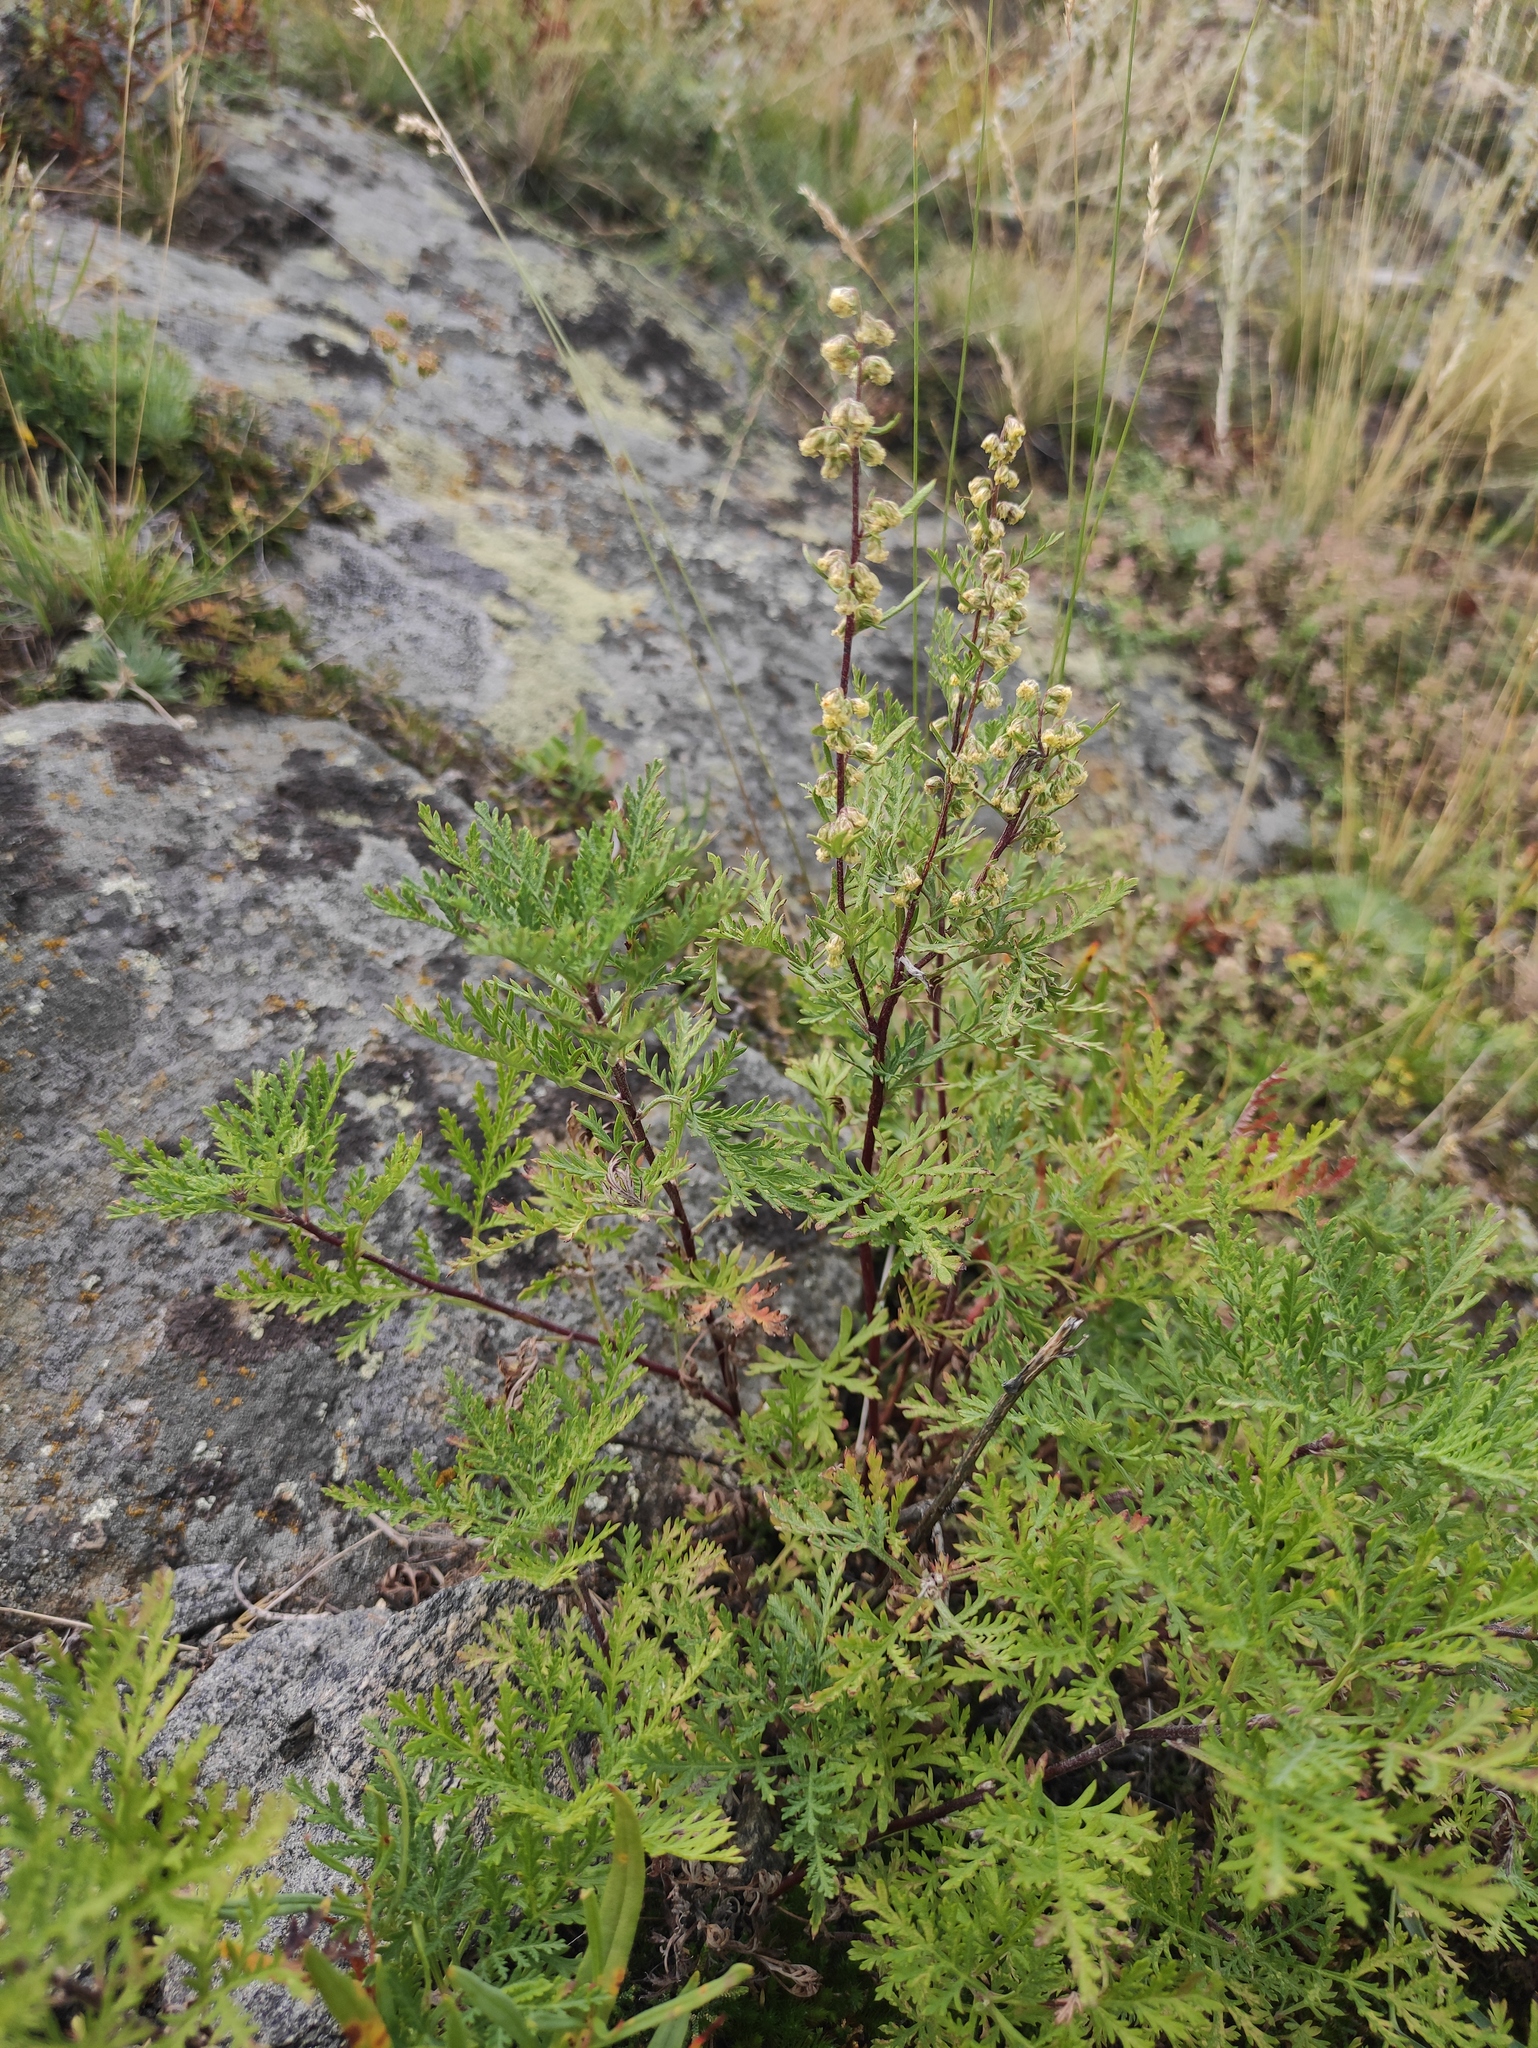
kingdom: Plantae
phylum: Tracheophyta
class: Magnoliopsida
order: Asterales
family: Asteraceae
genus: Artemisia
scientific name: Artemisia gmelinii
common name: Gmelin's wormwood
